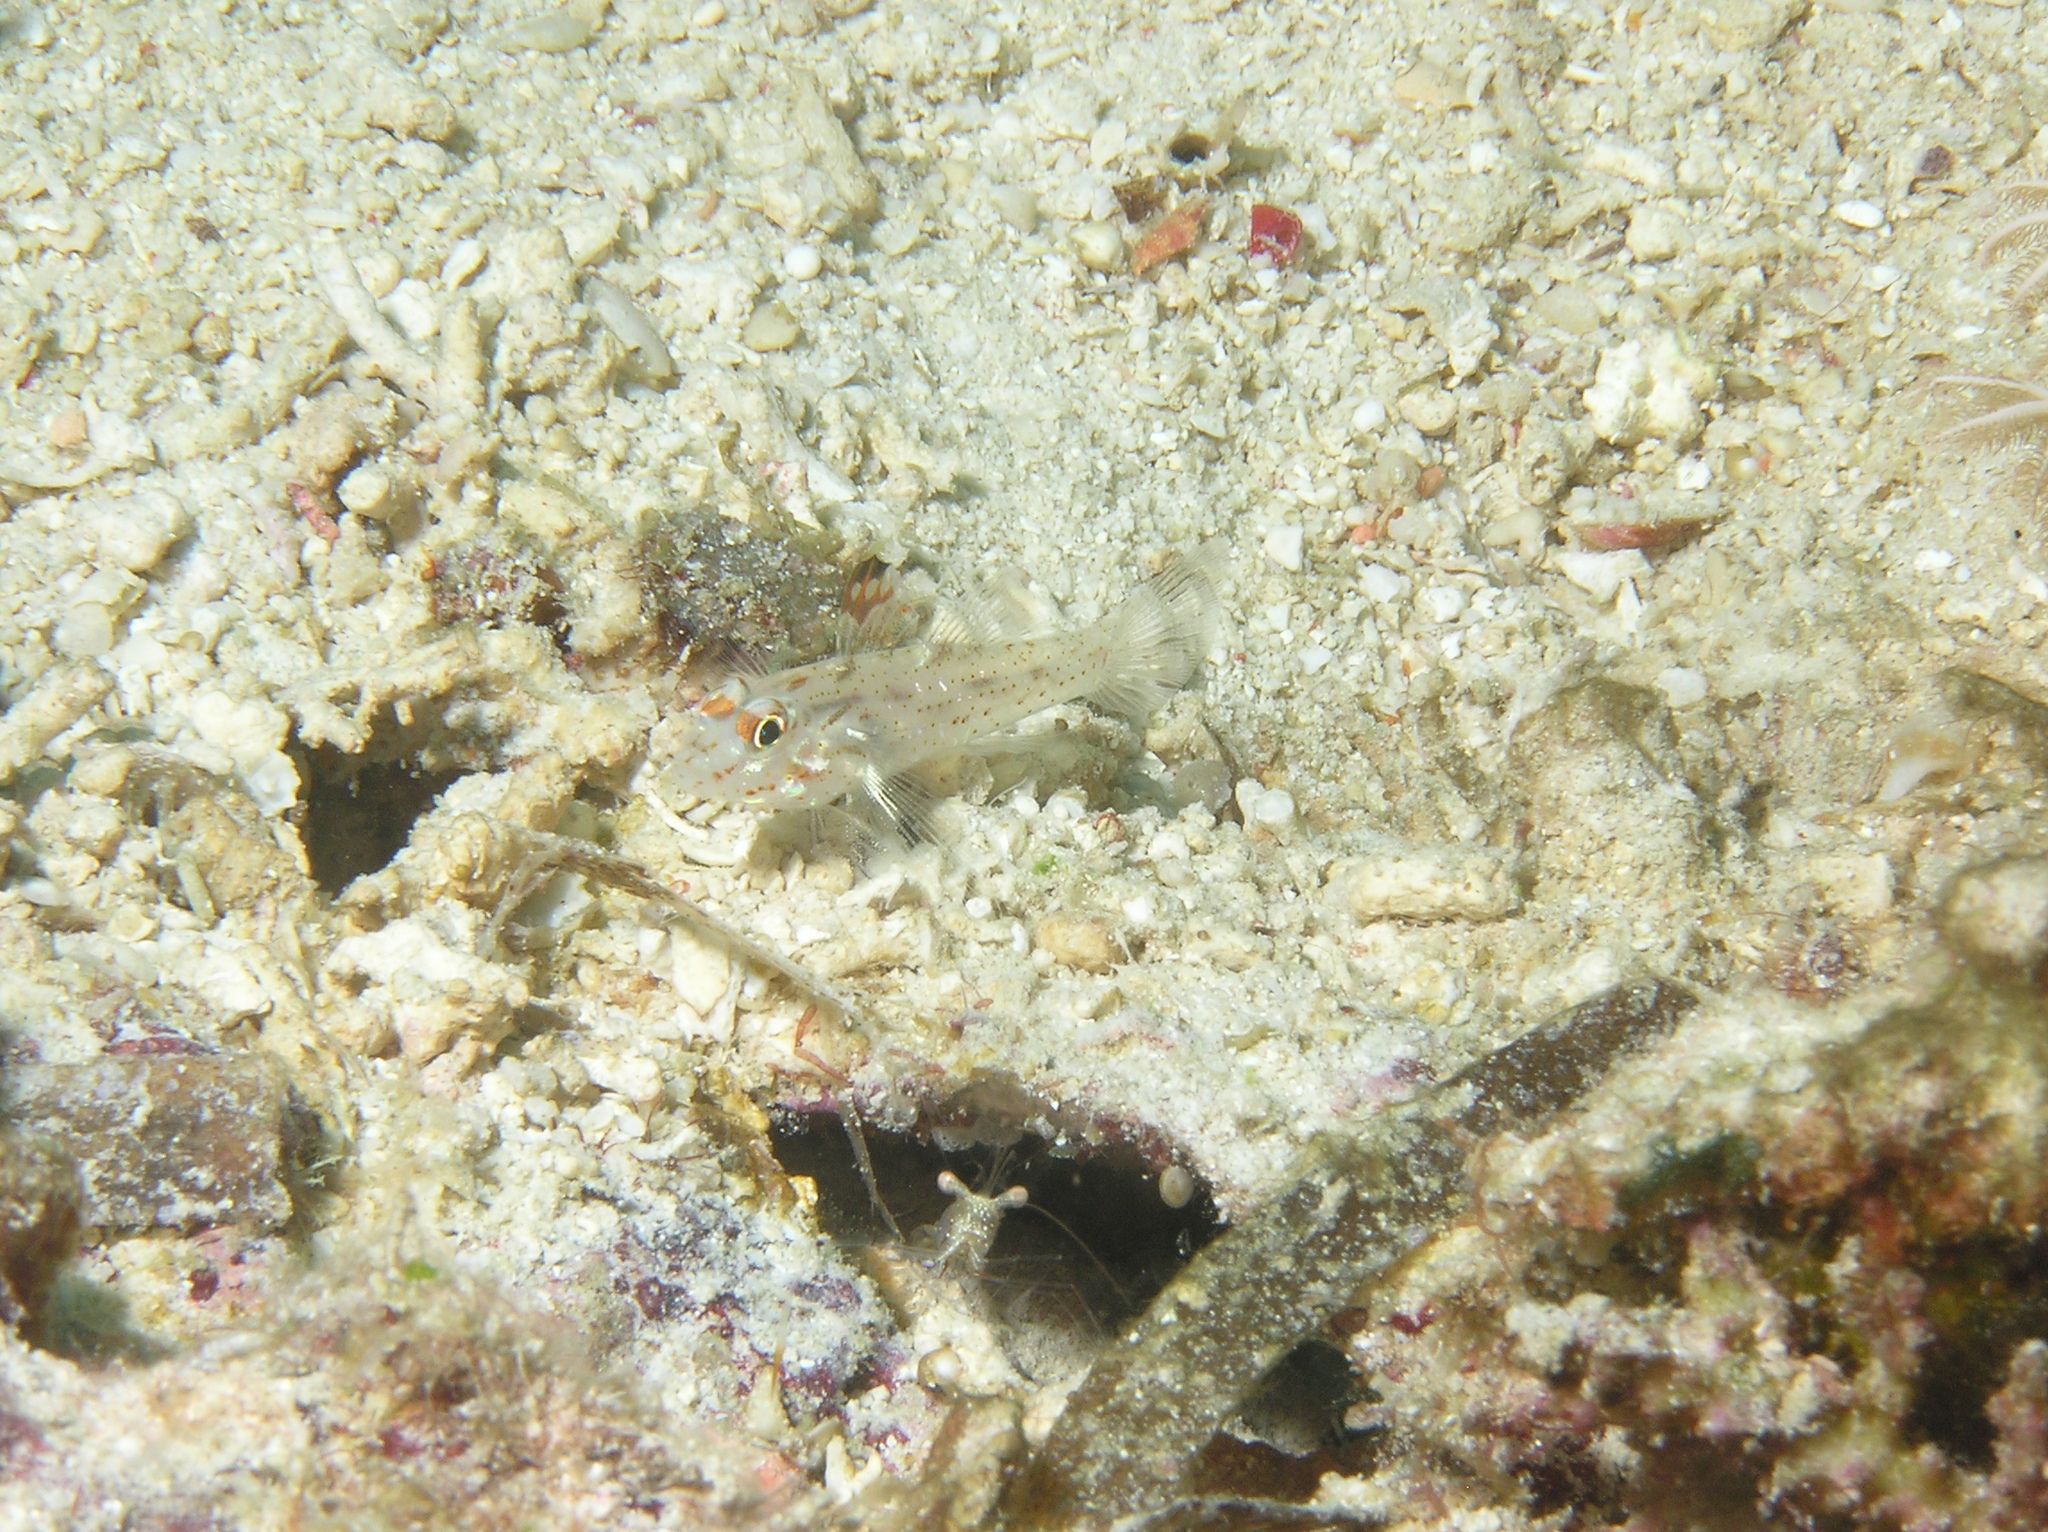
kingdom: Animalia
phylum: Chordata
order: Perciformes
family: Gobiidae
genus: Fusigobius
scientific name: Fusigobius signipinnis
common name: Flasher sand-goby
